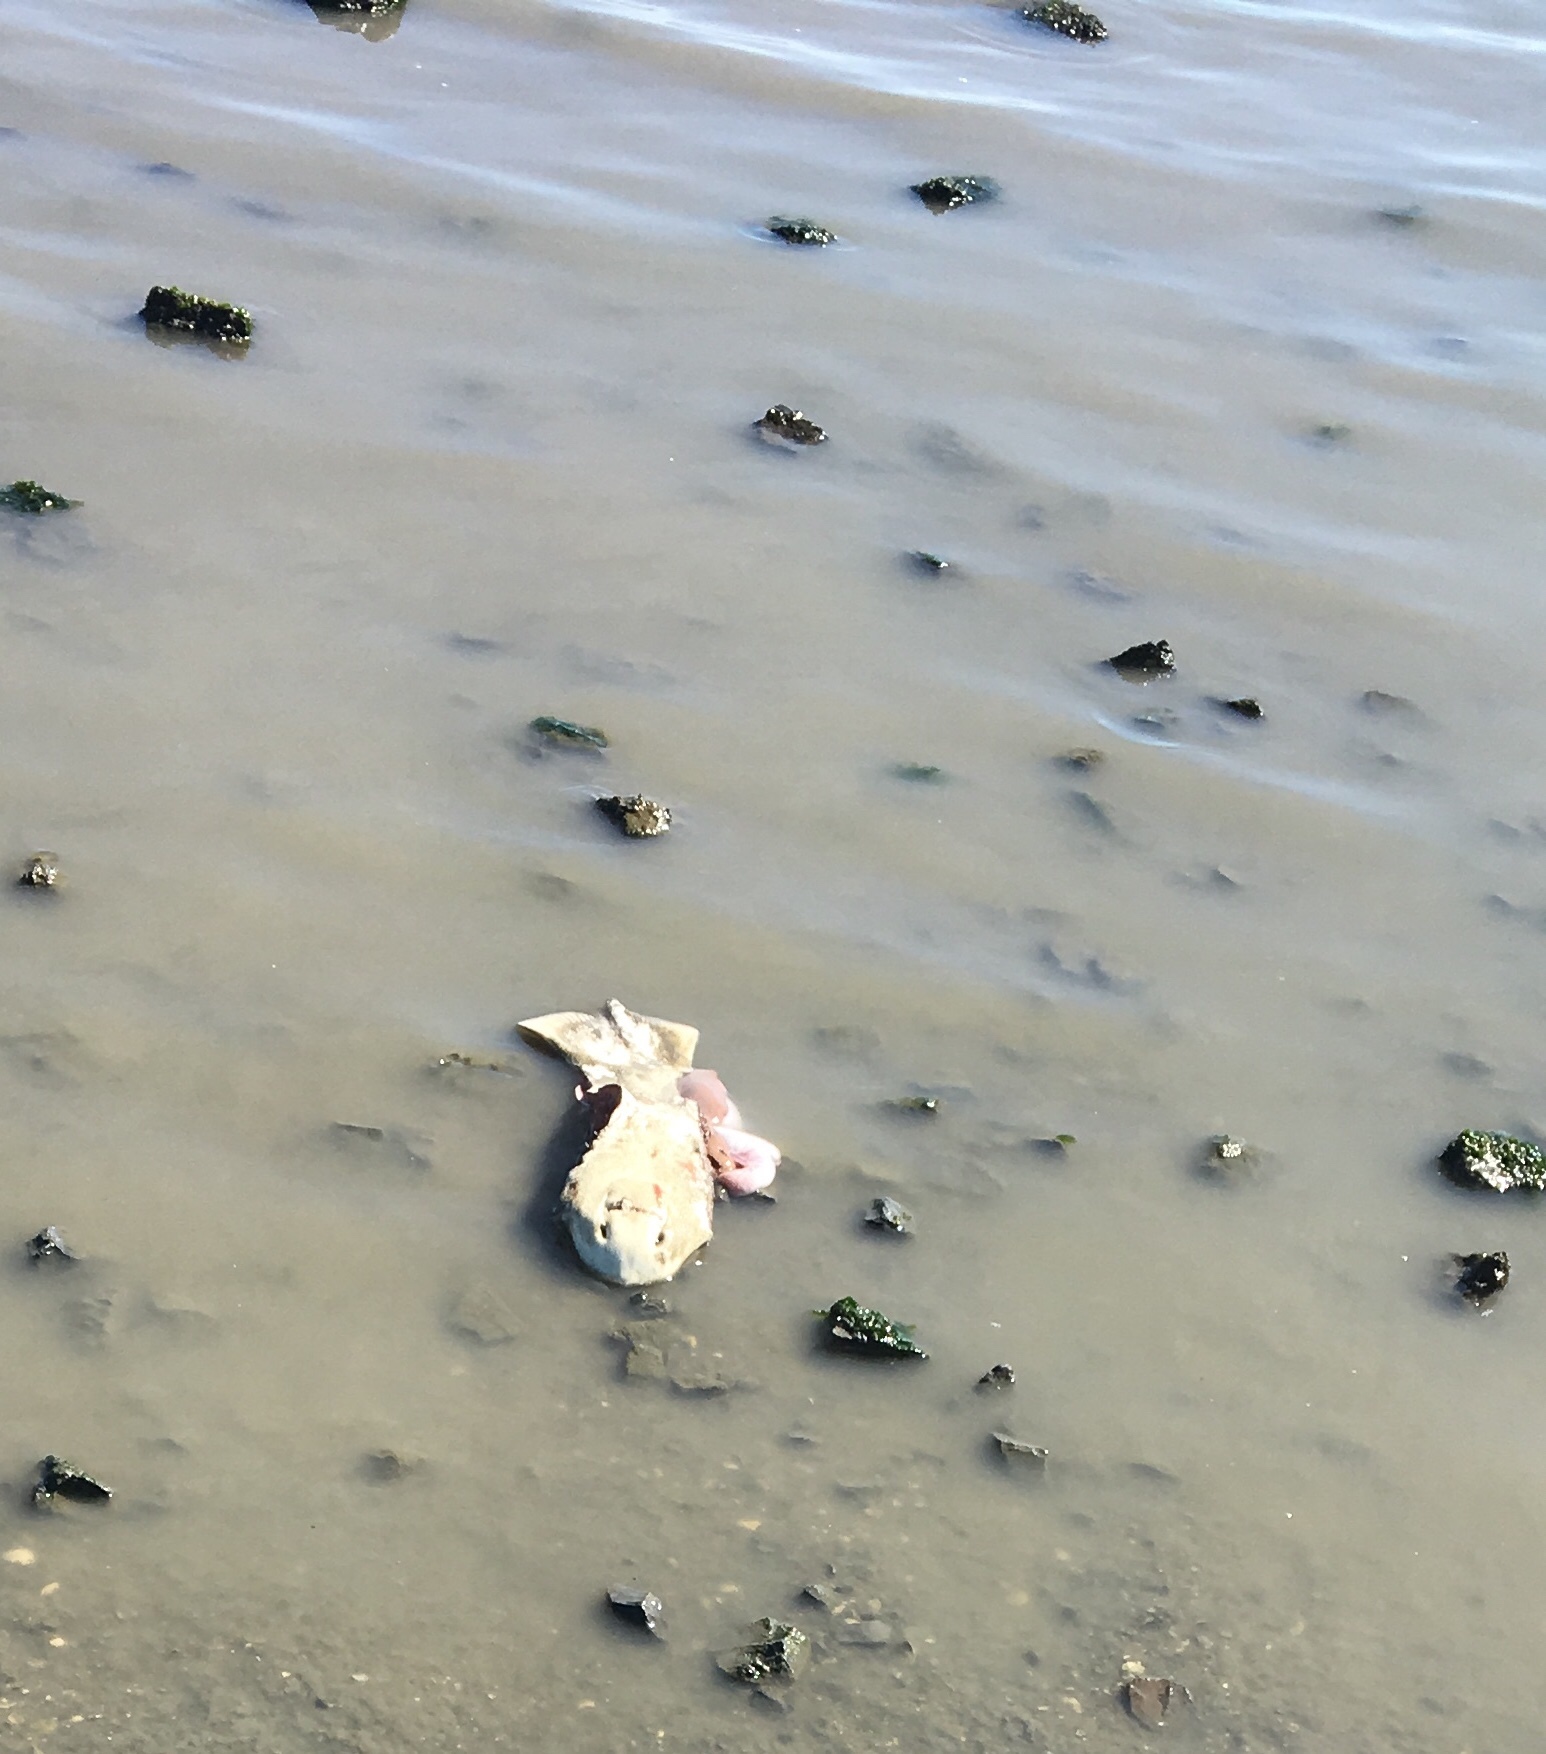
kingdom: Animalia
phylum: Chordata
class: Elasmobranchii
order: Myliobatiformes
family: Myliobatidae
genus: Myliobatis
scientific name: Myliobatis californica
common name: Bat ray
